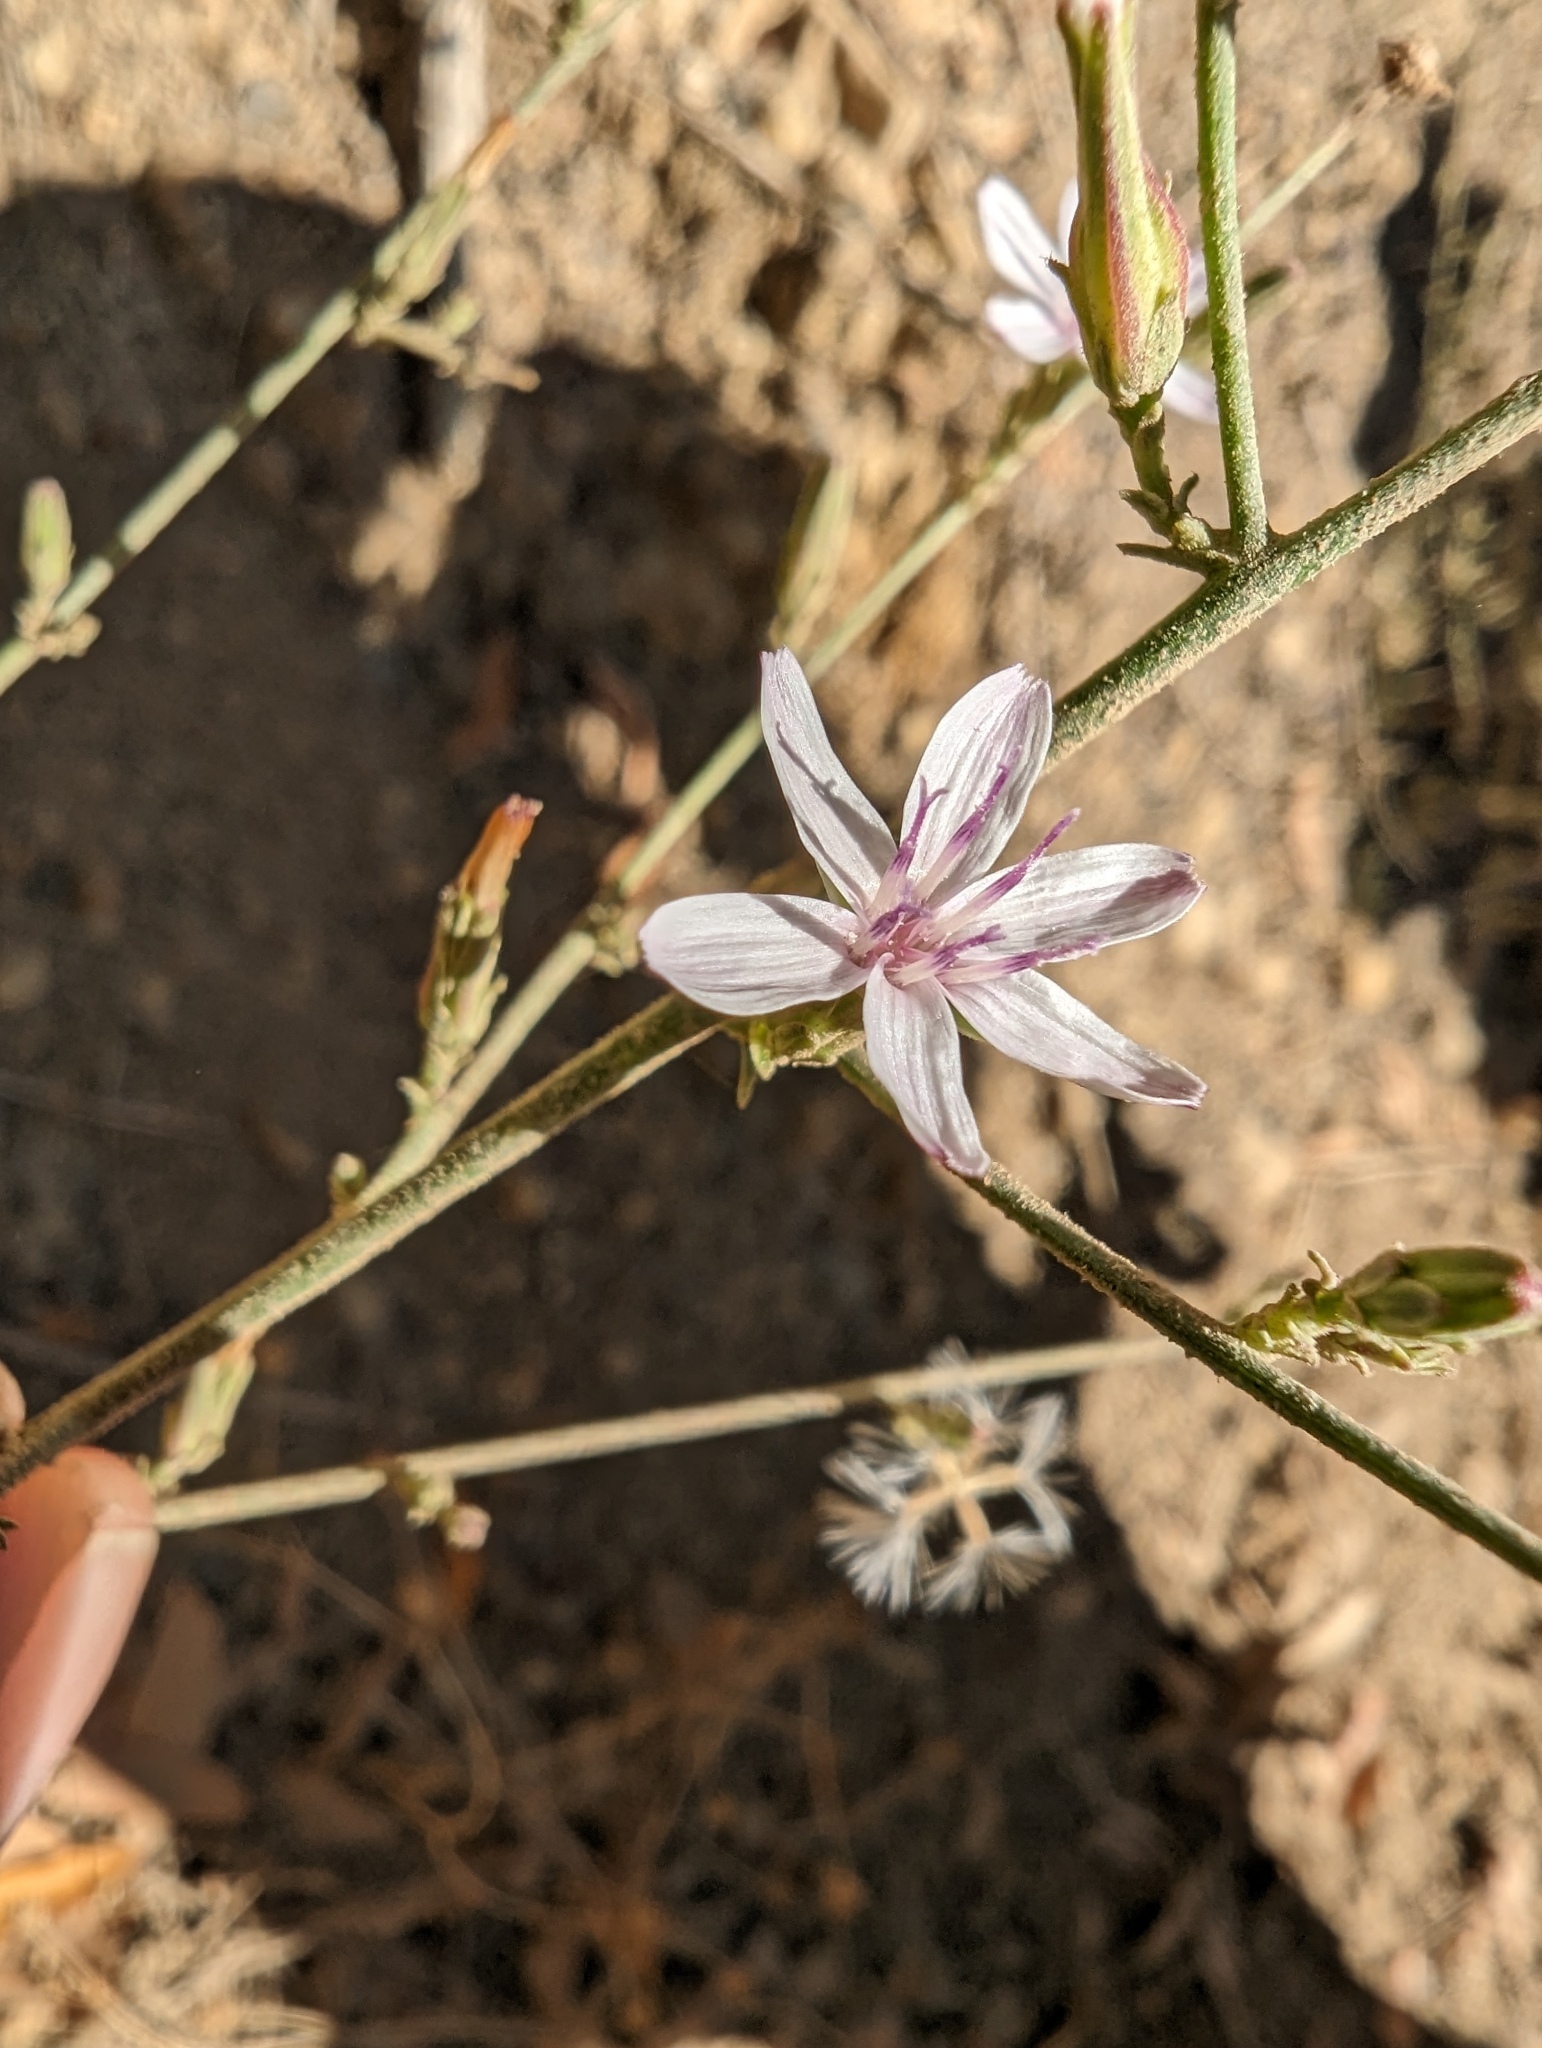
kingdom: Plantae
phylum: Tracheophyta
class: Magnoliopsida
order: Asterales
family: Asteraceae
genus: Stephanomeria
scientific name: Stephanomeria virgata
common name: Virgate wirelettuce
